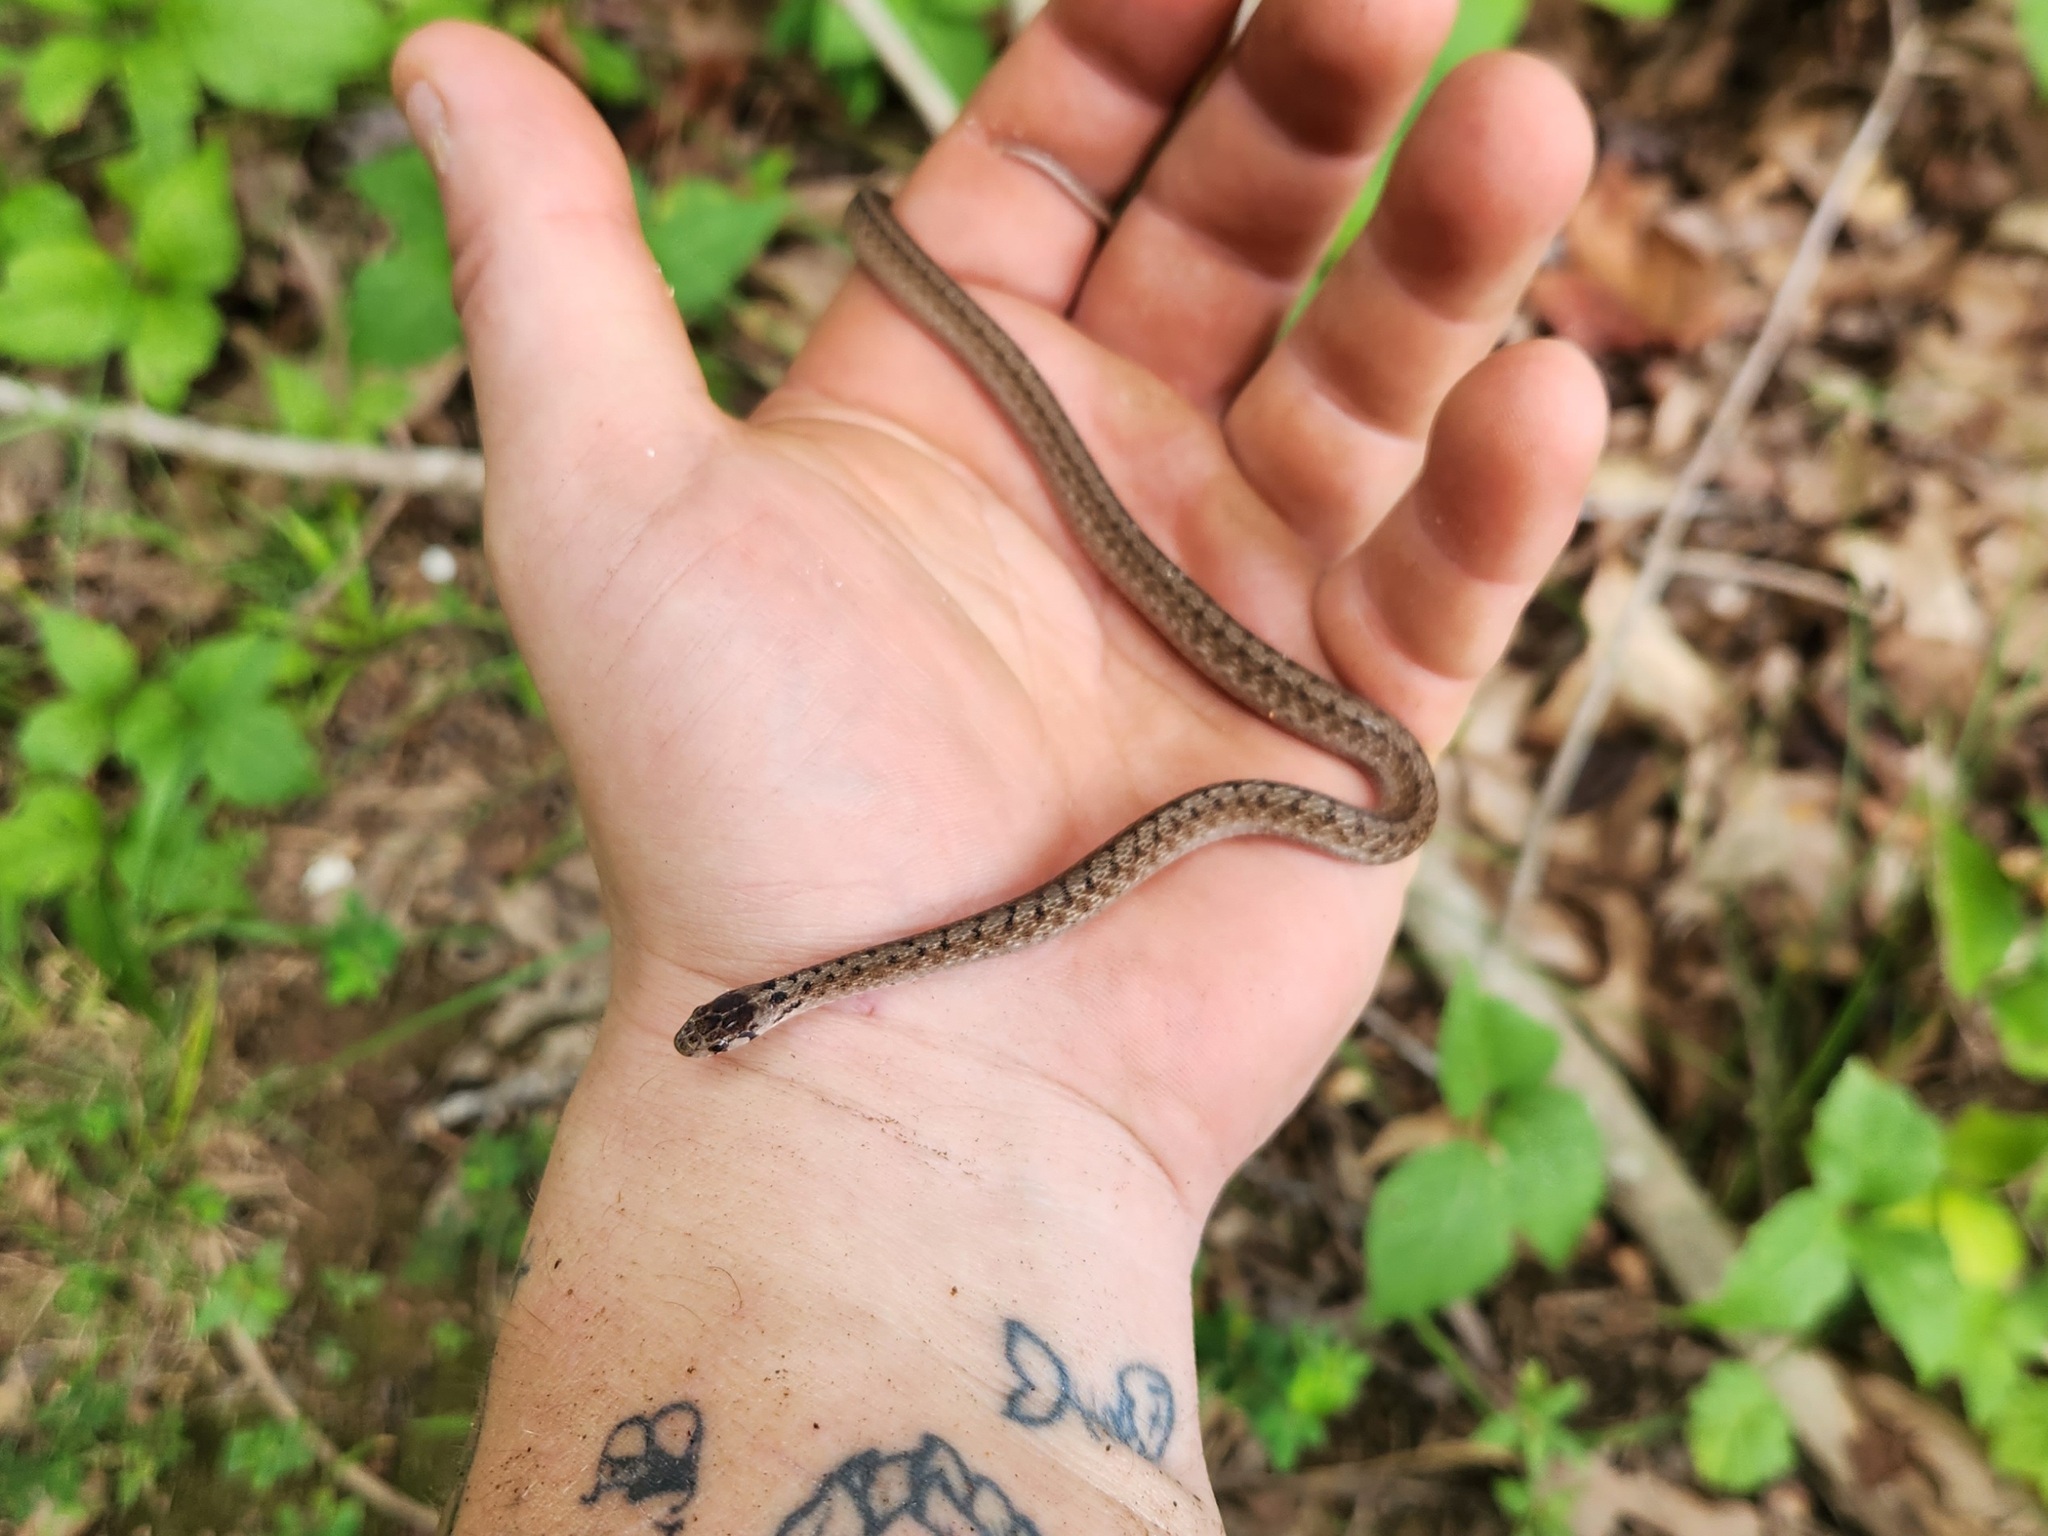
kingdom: Animalia
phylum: Chordata
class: Squamata
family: Colubridae
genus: Storeria
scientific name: Storeria dekayi
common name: (dekay’s) brown snake
